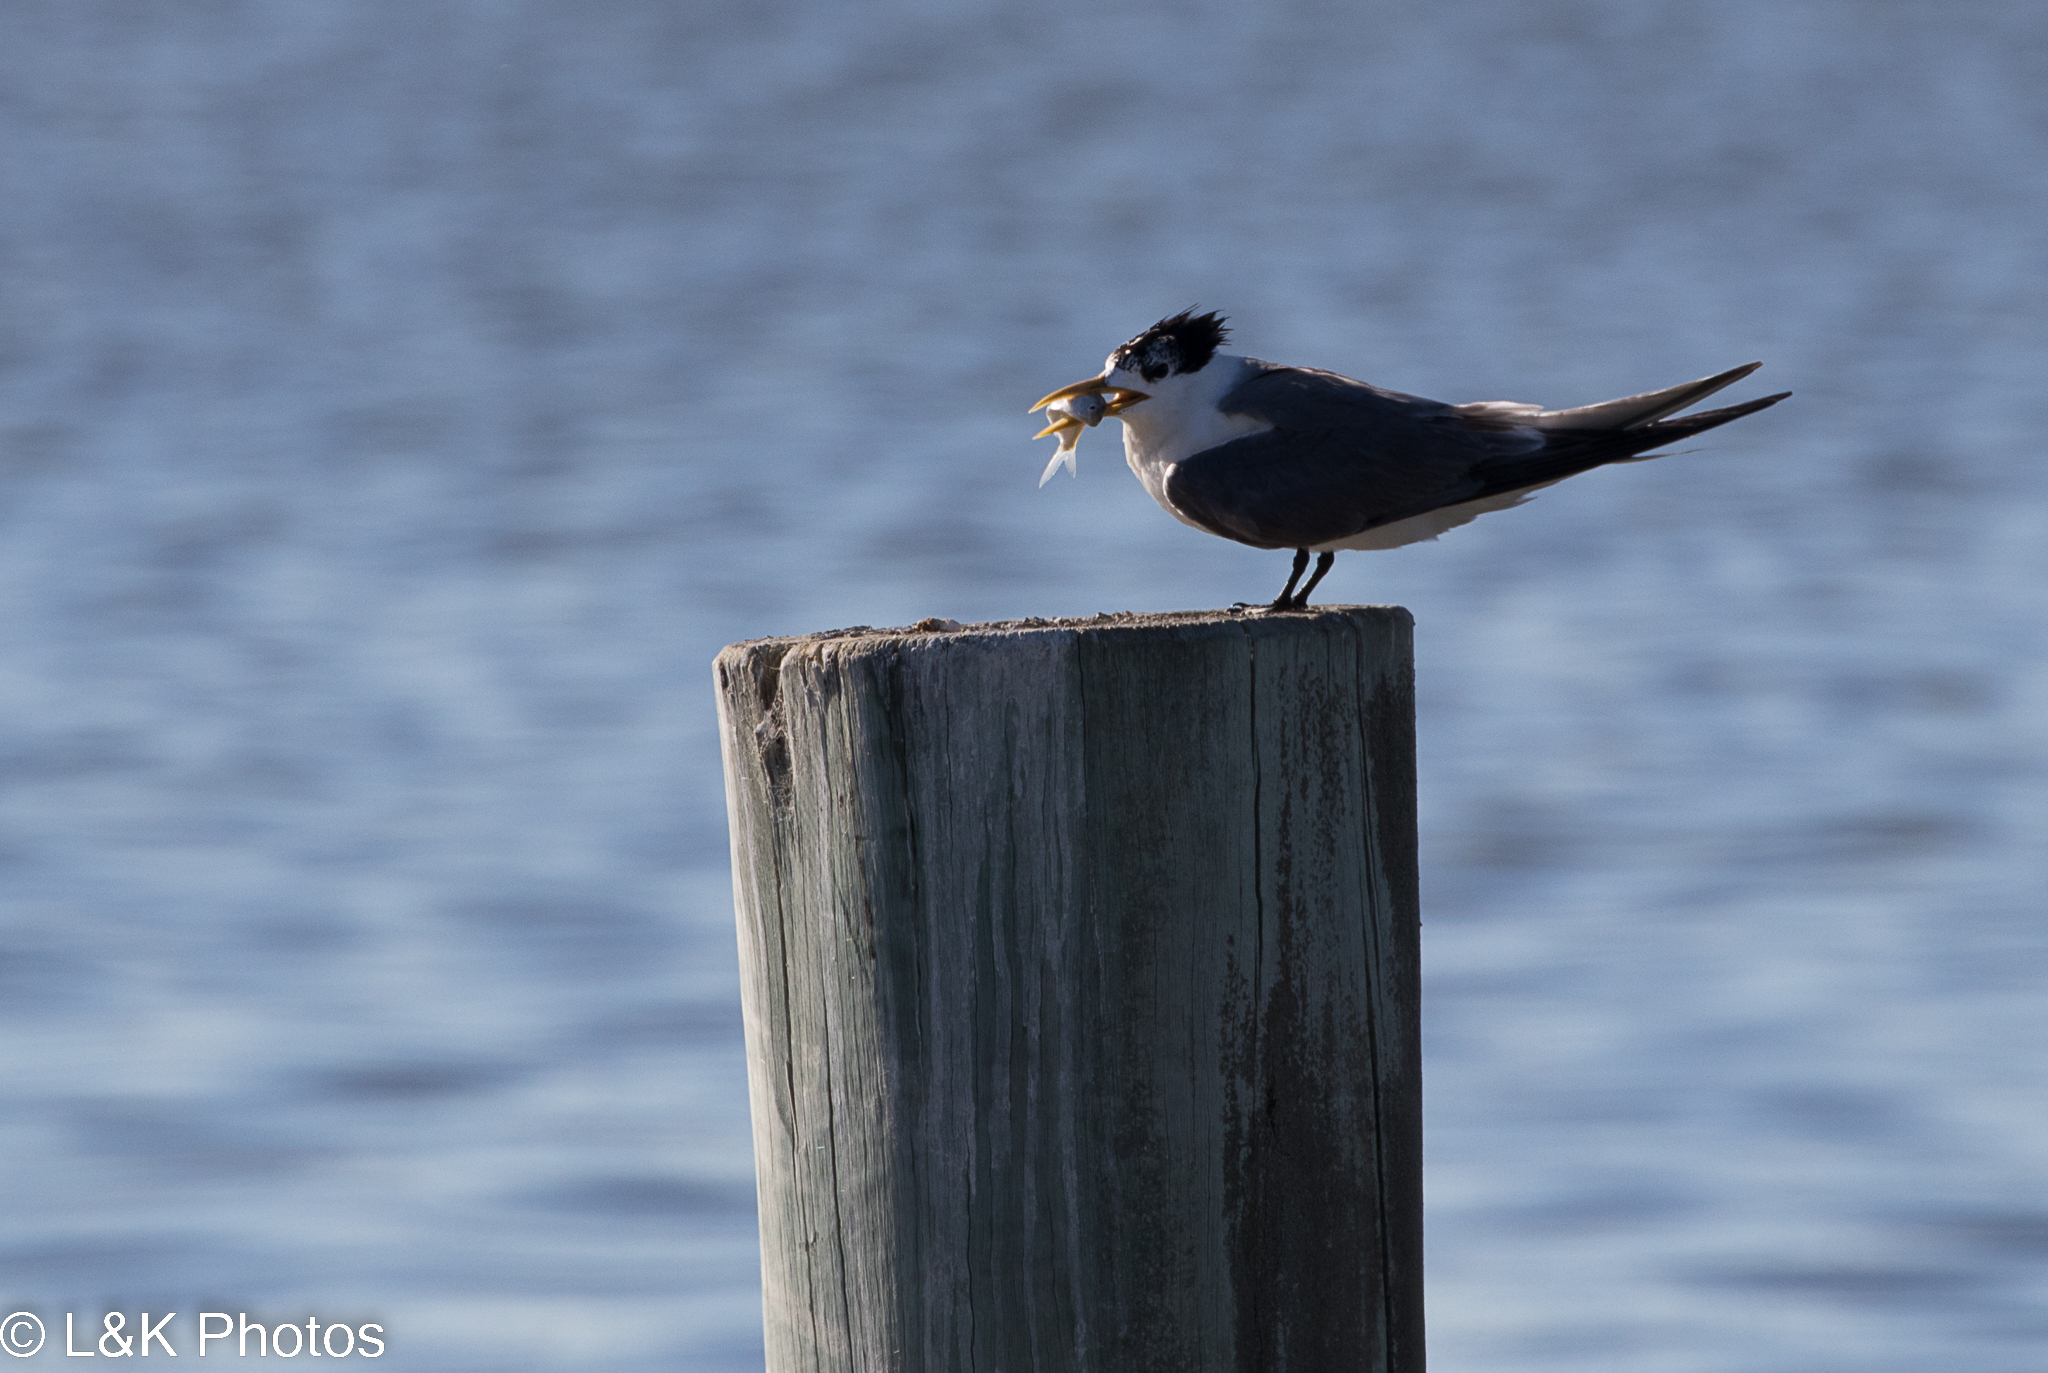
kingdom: Animalia
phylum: Chordata
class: Aves
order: Charadriiformes
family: Laridae
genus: Thalasseus
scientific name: Thalasseus bergii
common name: Greater crested tern
